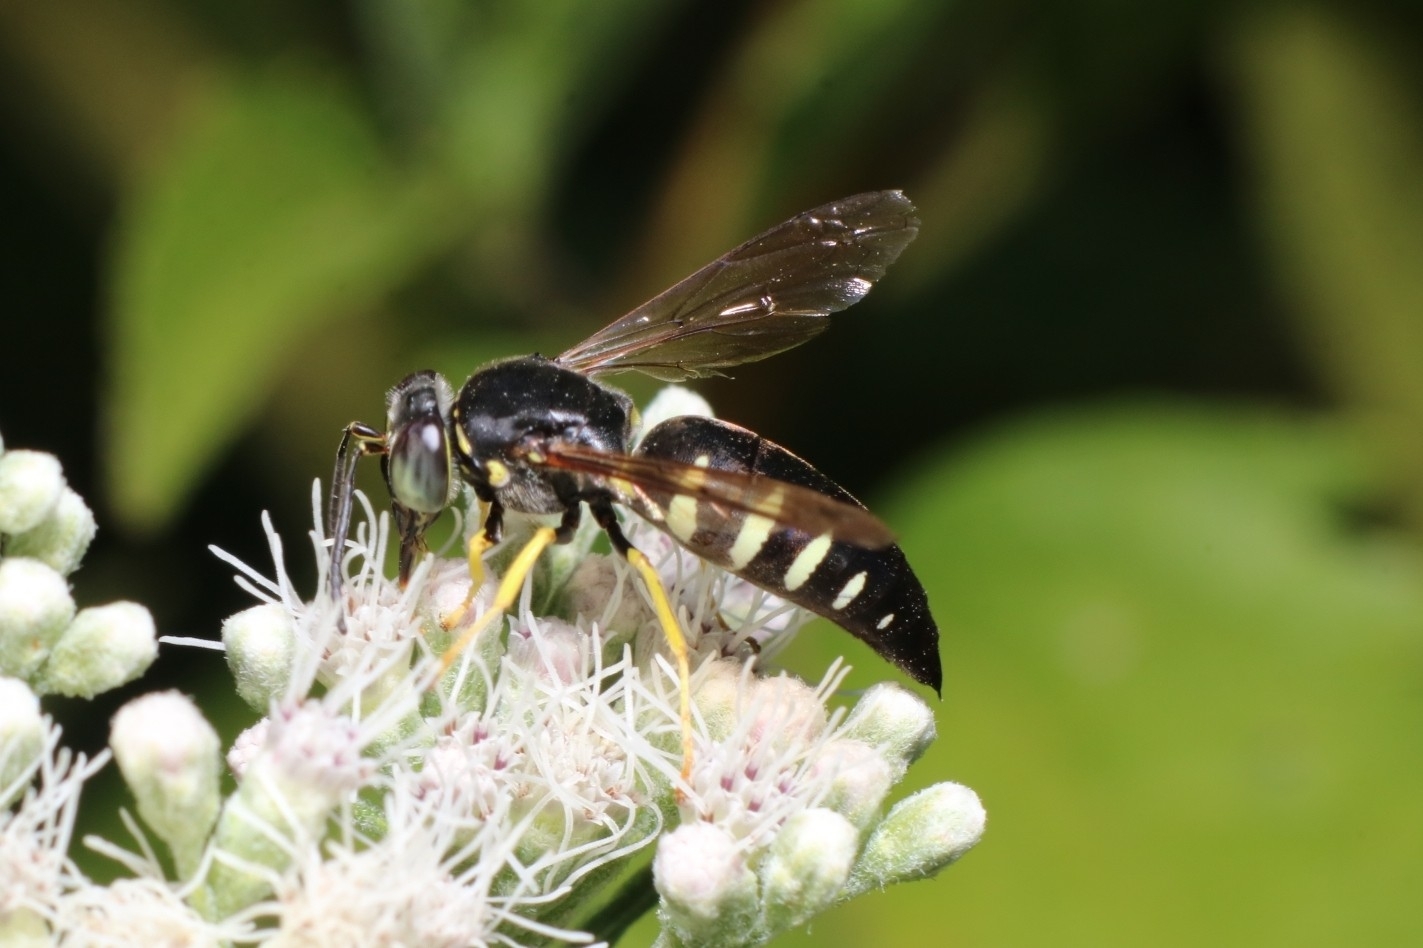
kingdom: Animalia
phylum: Arthropoda
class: Insecta
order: Hymenoptera
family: Crabronidae
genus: Bicyrtes
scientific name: Bicyrtes quadrifasciatus
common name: Four-banded stink bug hunter wasp
